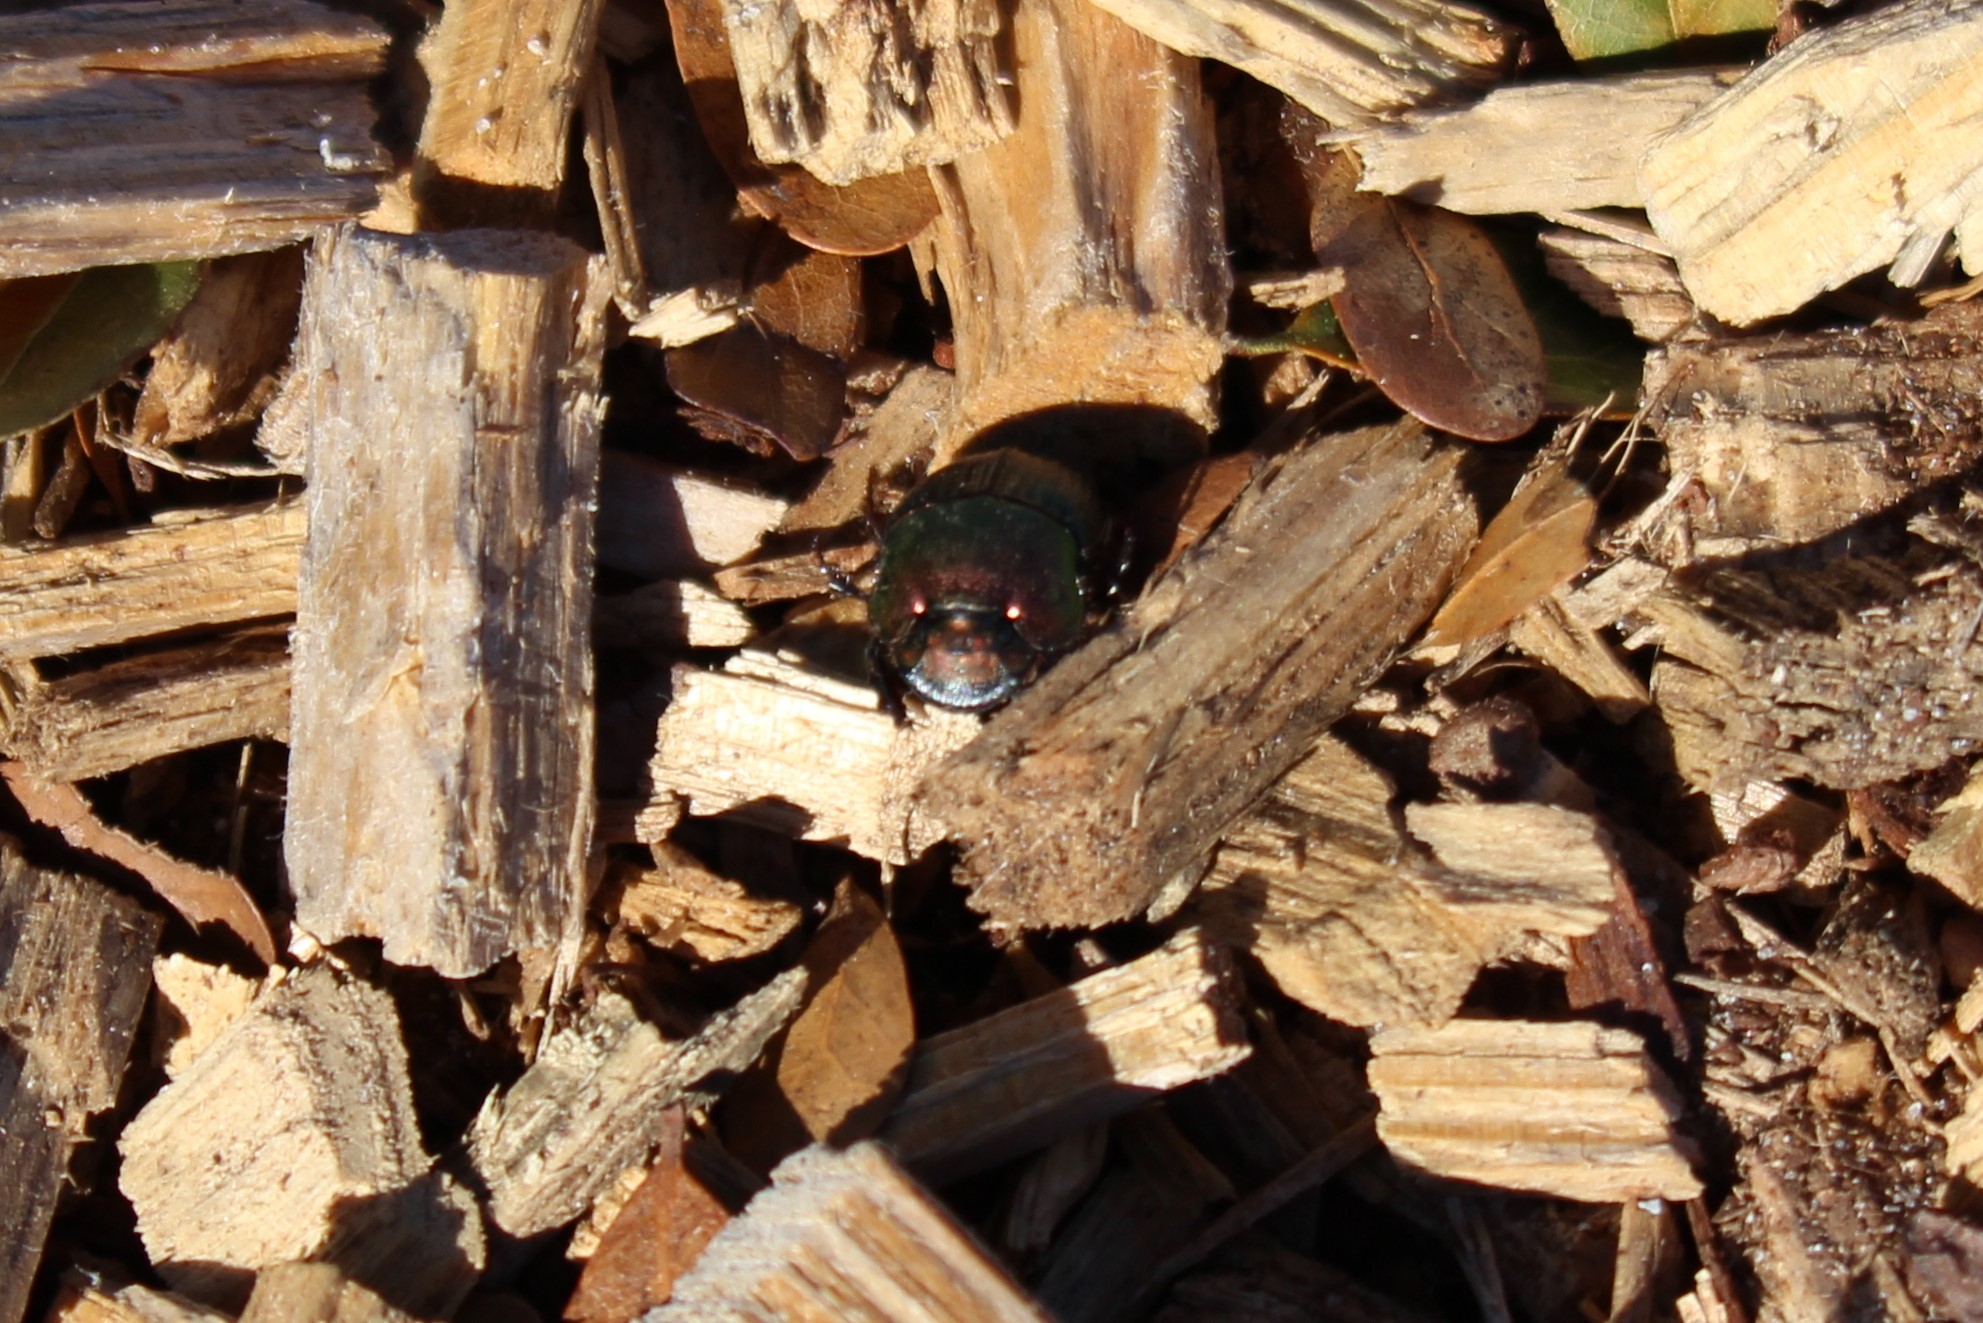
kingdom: Animalia
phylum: Arthropoda
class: Insecta
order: Coleoptera
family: Scarabaeidae
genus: Phanaeus
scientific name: Phanaeus igneus
